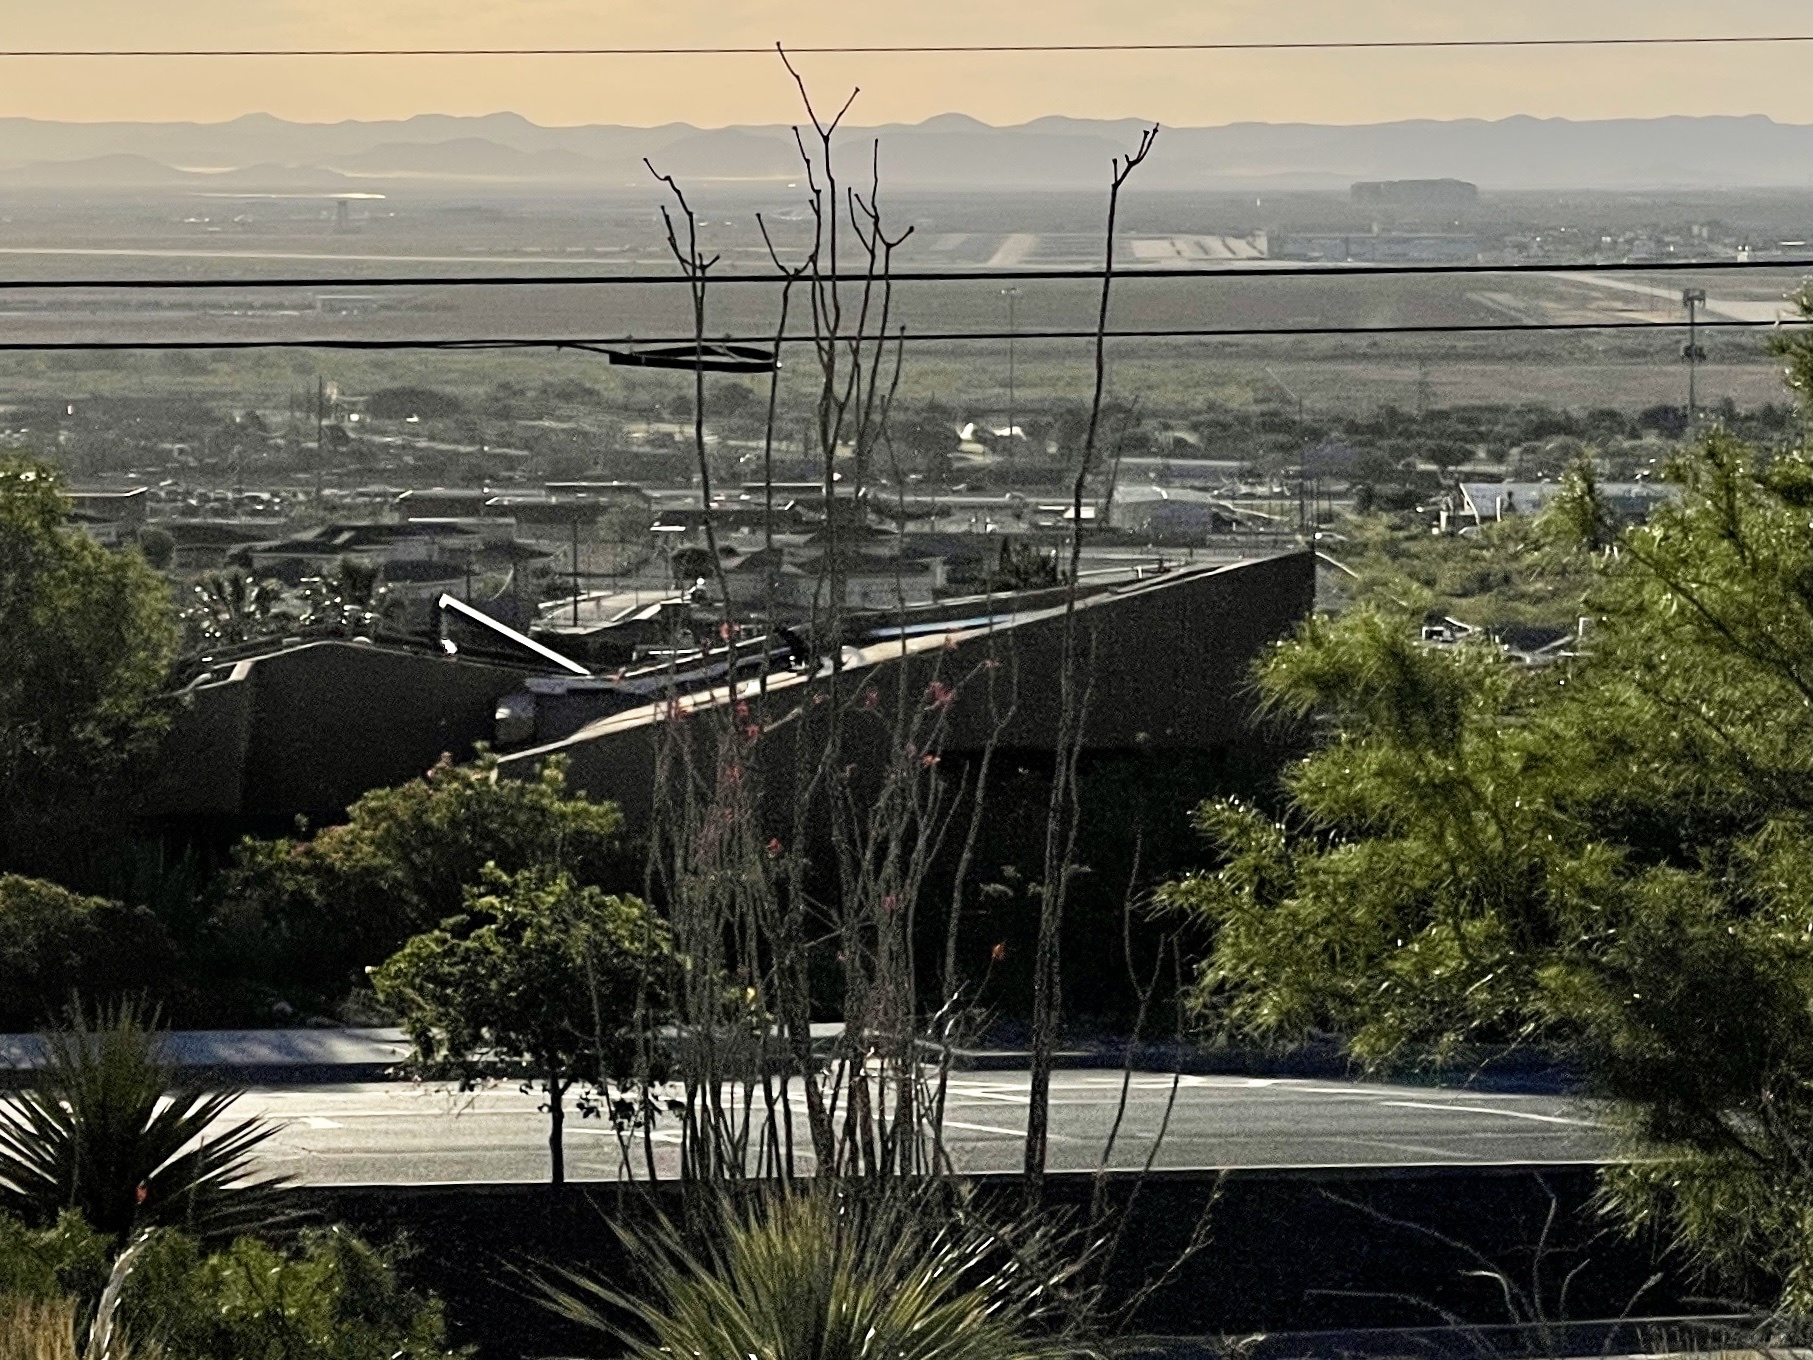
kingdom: Plantae
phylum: Tracheophyta
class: Magnoliopsida
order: Ericales
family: Fouquieriaceae
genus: Fouquieria
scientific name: Fouquieria splendens
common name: Vine-cactus
